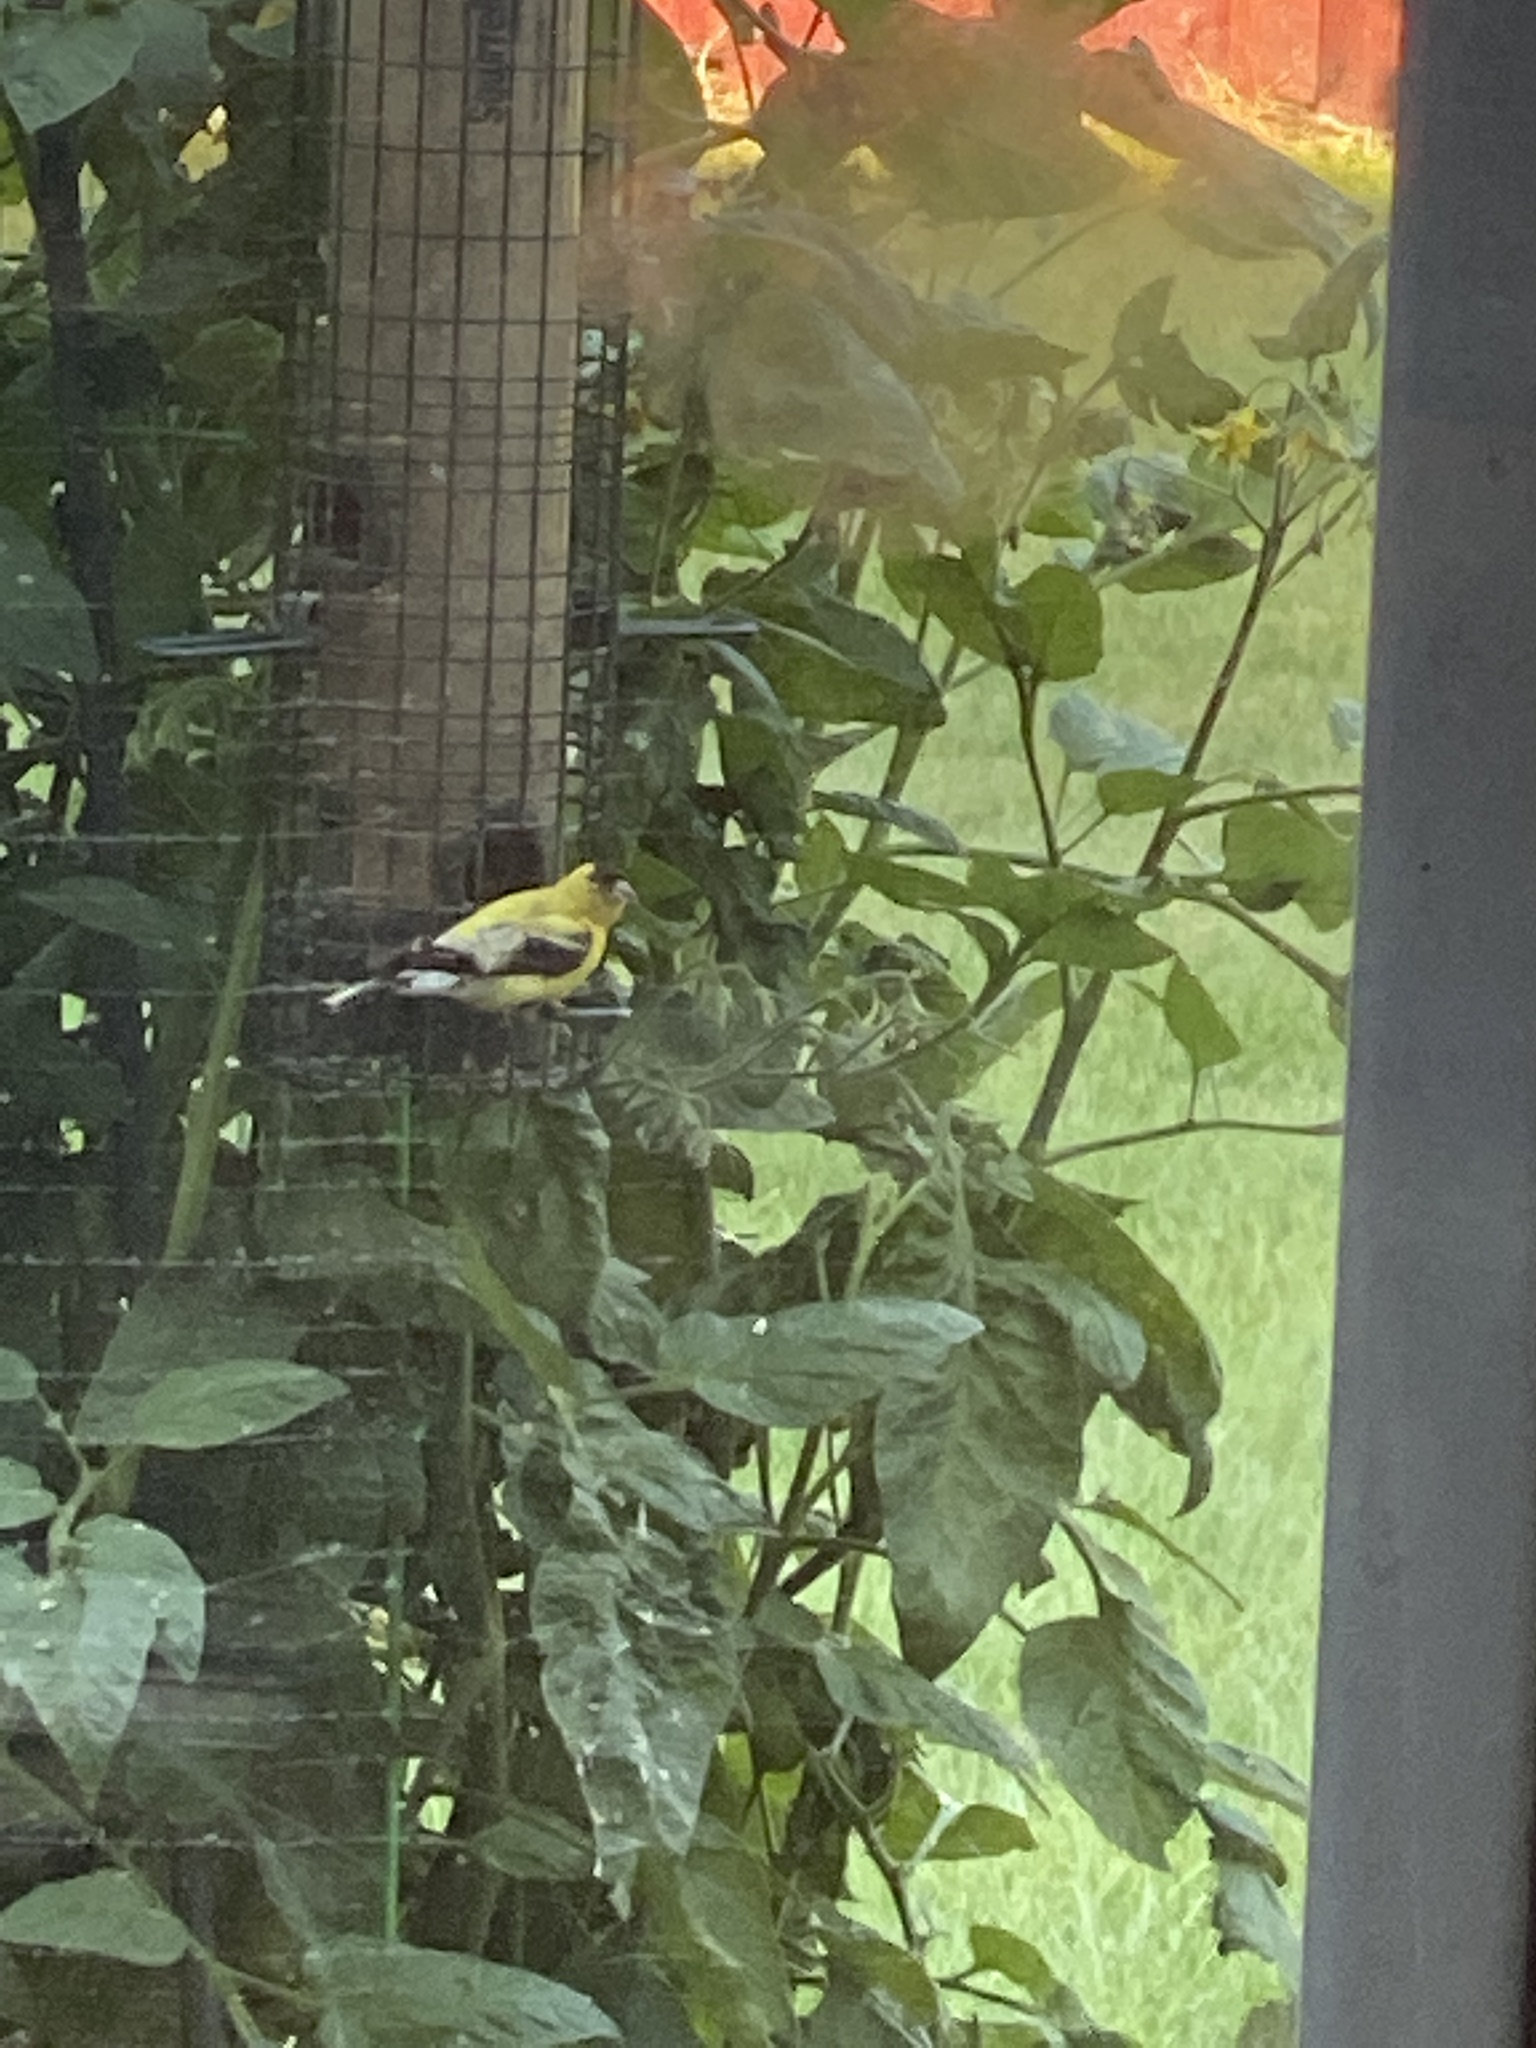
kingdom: Animalia
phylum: Chordata
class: Aves
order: Passeriformes
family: Fringillidae
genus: Spinus
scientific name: Spinus tristis
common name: American goldfinch
